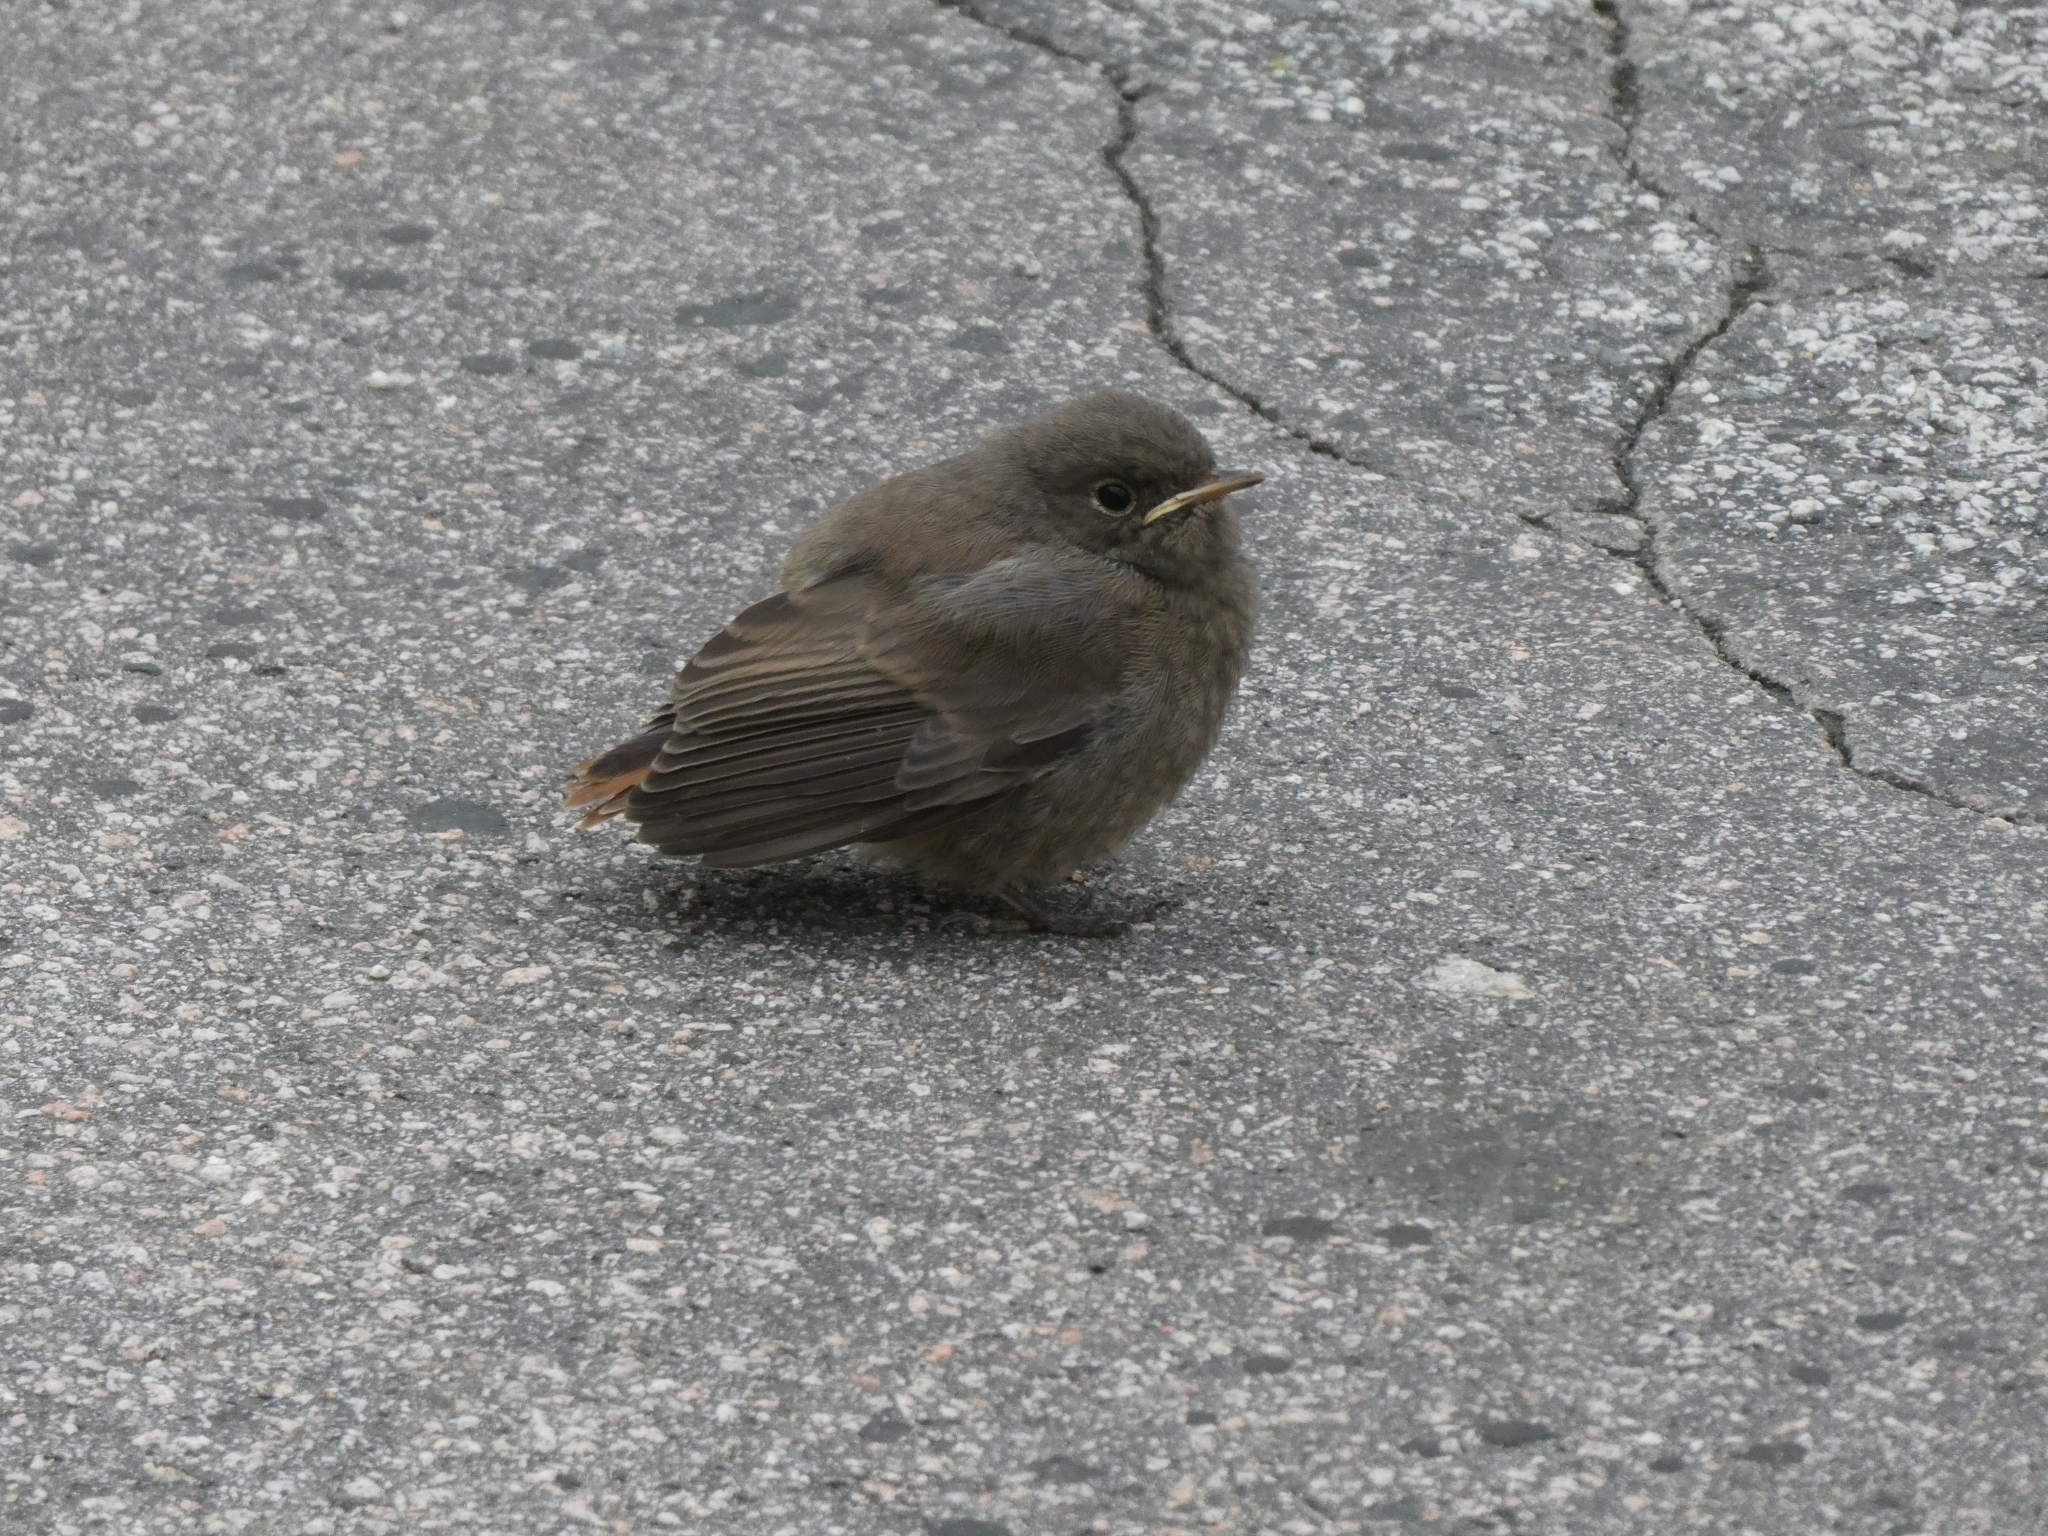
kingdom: Animalia
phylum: Chordata
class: Aves
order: Passeriformes
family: Muscicapidae
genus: Phoenicurus
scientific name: Phoenicurus ochruros
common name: Black redstart
